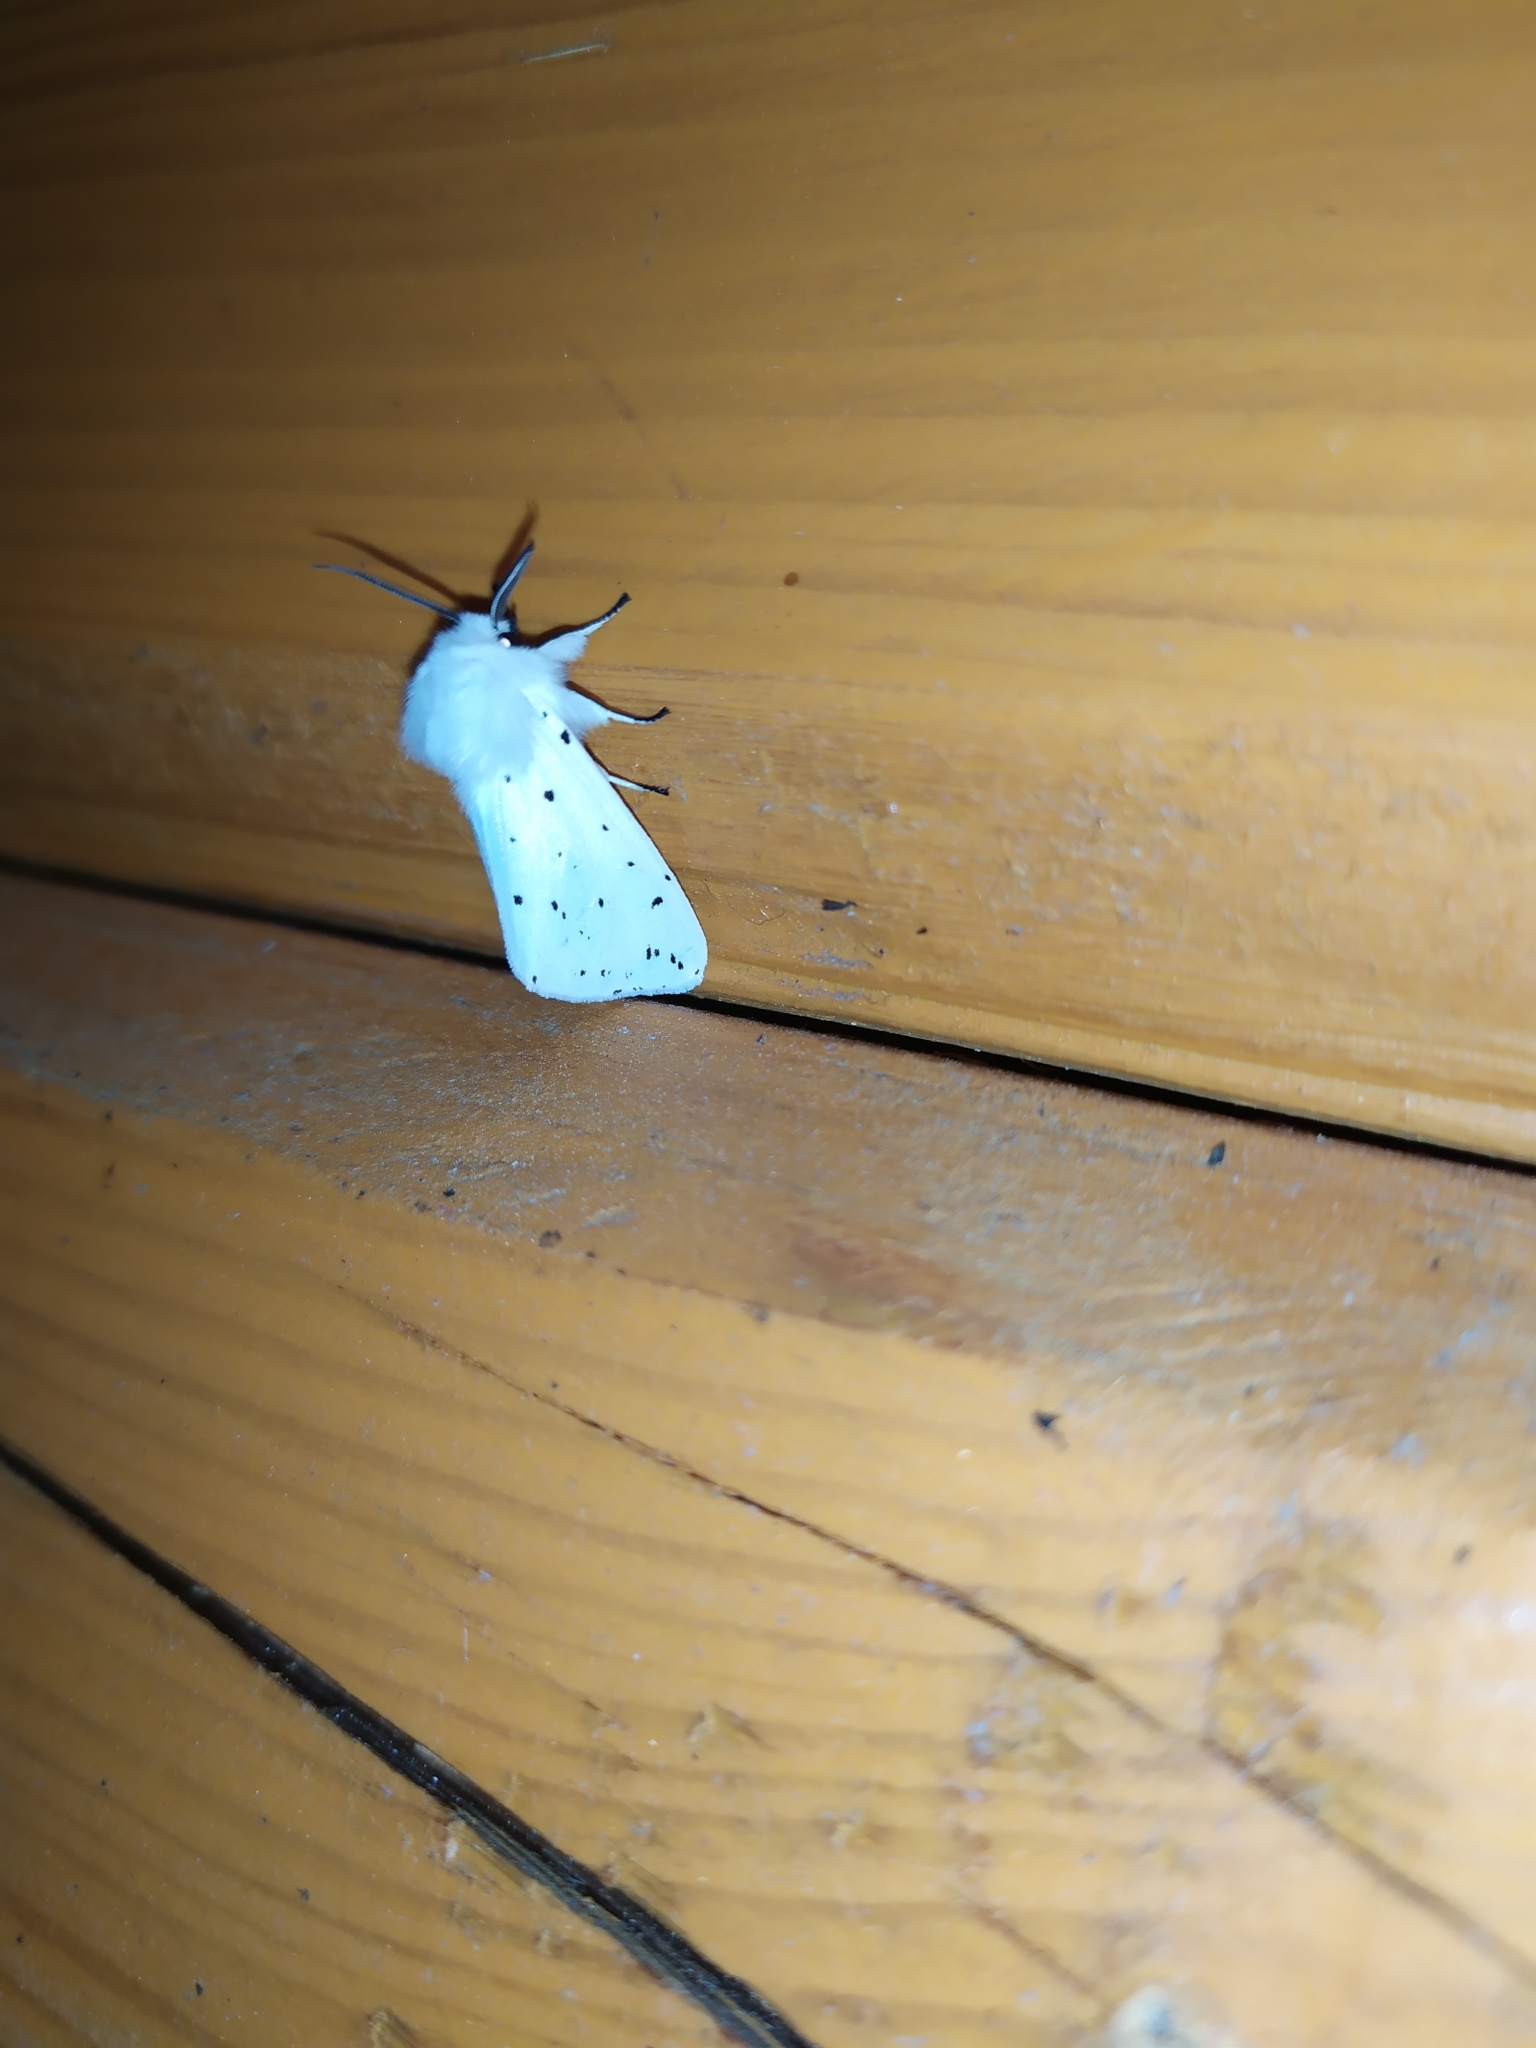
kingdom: Animalia
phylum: Arthropoda
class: Insecta
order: Lepidoptera
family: Erebidae
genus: Spilosoma
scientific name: Spilosoma lubricipeda
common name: White ermine
